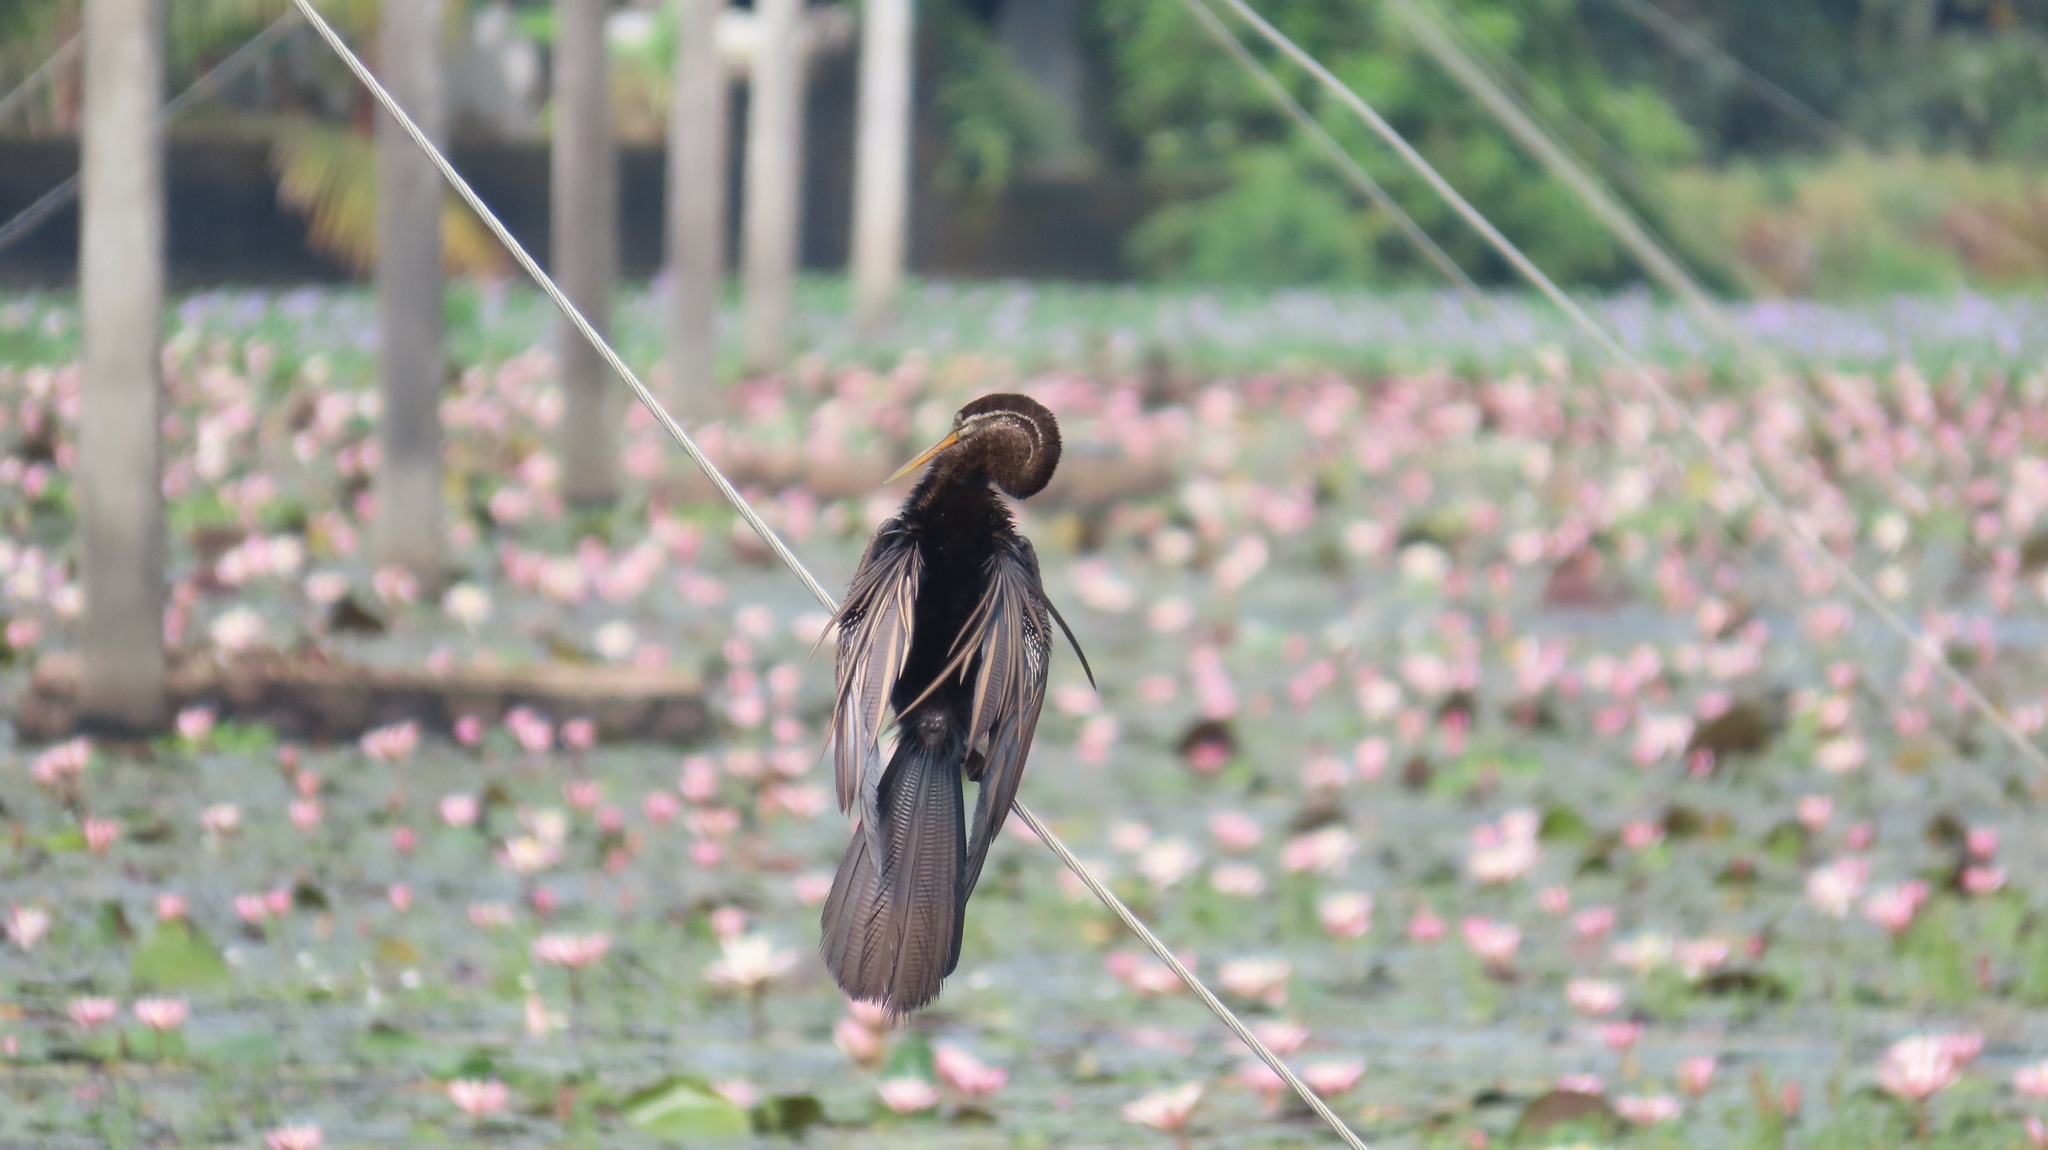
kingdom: Animalia
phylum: Chordata
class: Aves
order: Suliformes
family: Anhingidae
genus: Anhinga
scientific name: Anhinga melanogaster
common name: Oriental darter
